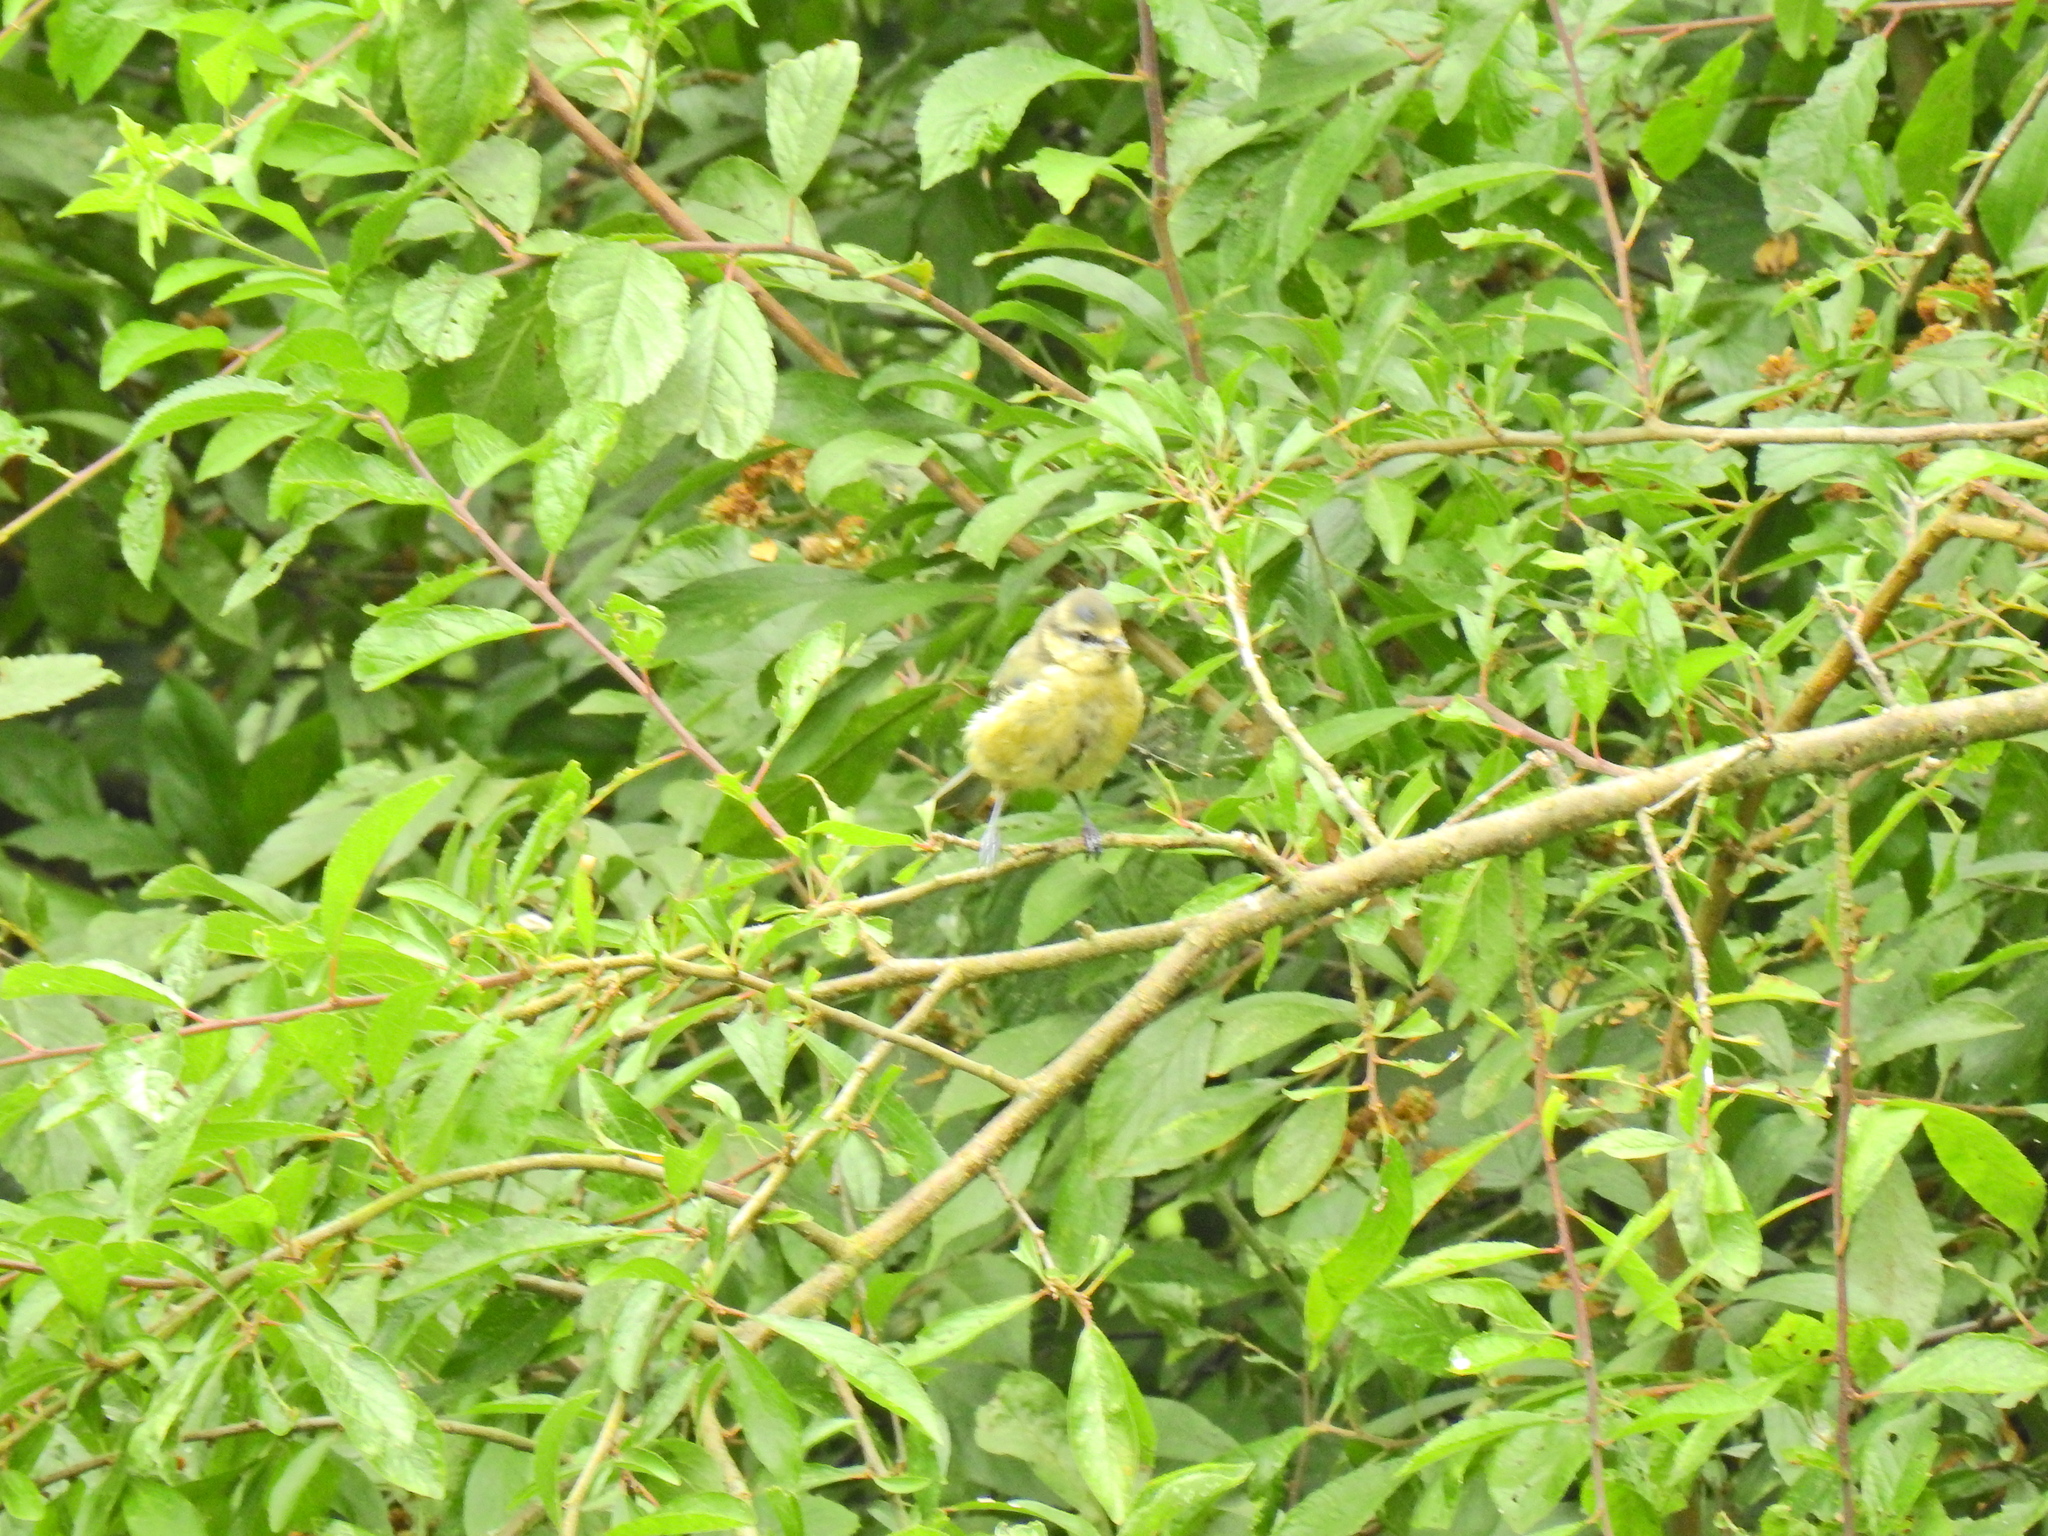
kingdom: Animalia
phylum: Chordata
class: Aves
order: Passeriformes
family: Paridae
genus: Cyanistes
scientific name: Cyanistes caeruleus
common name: Eurasian blue tit
